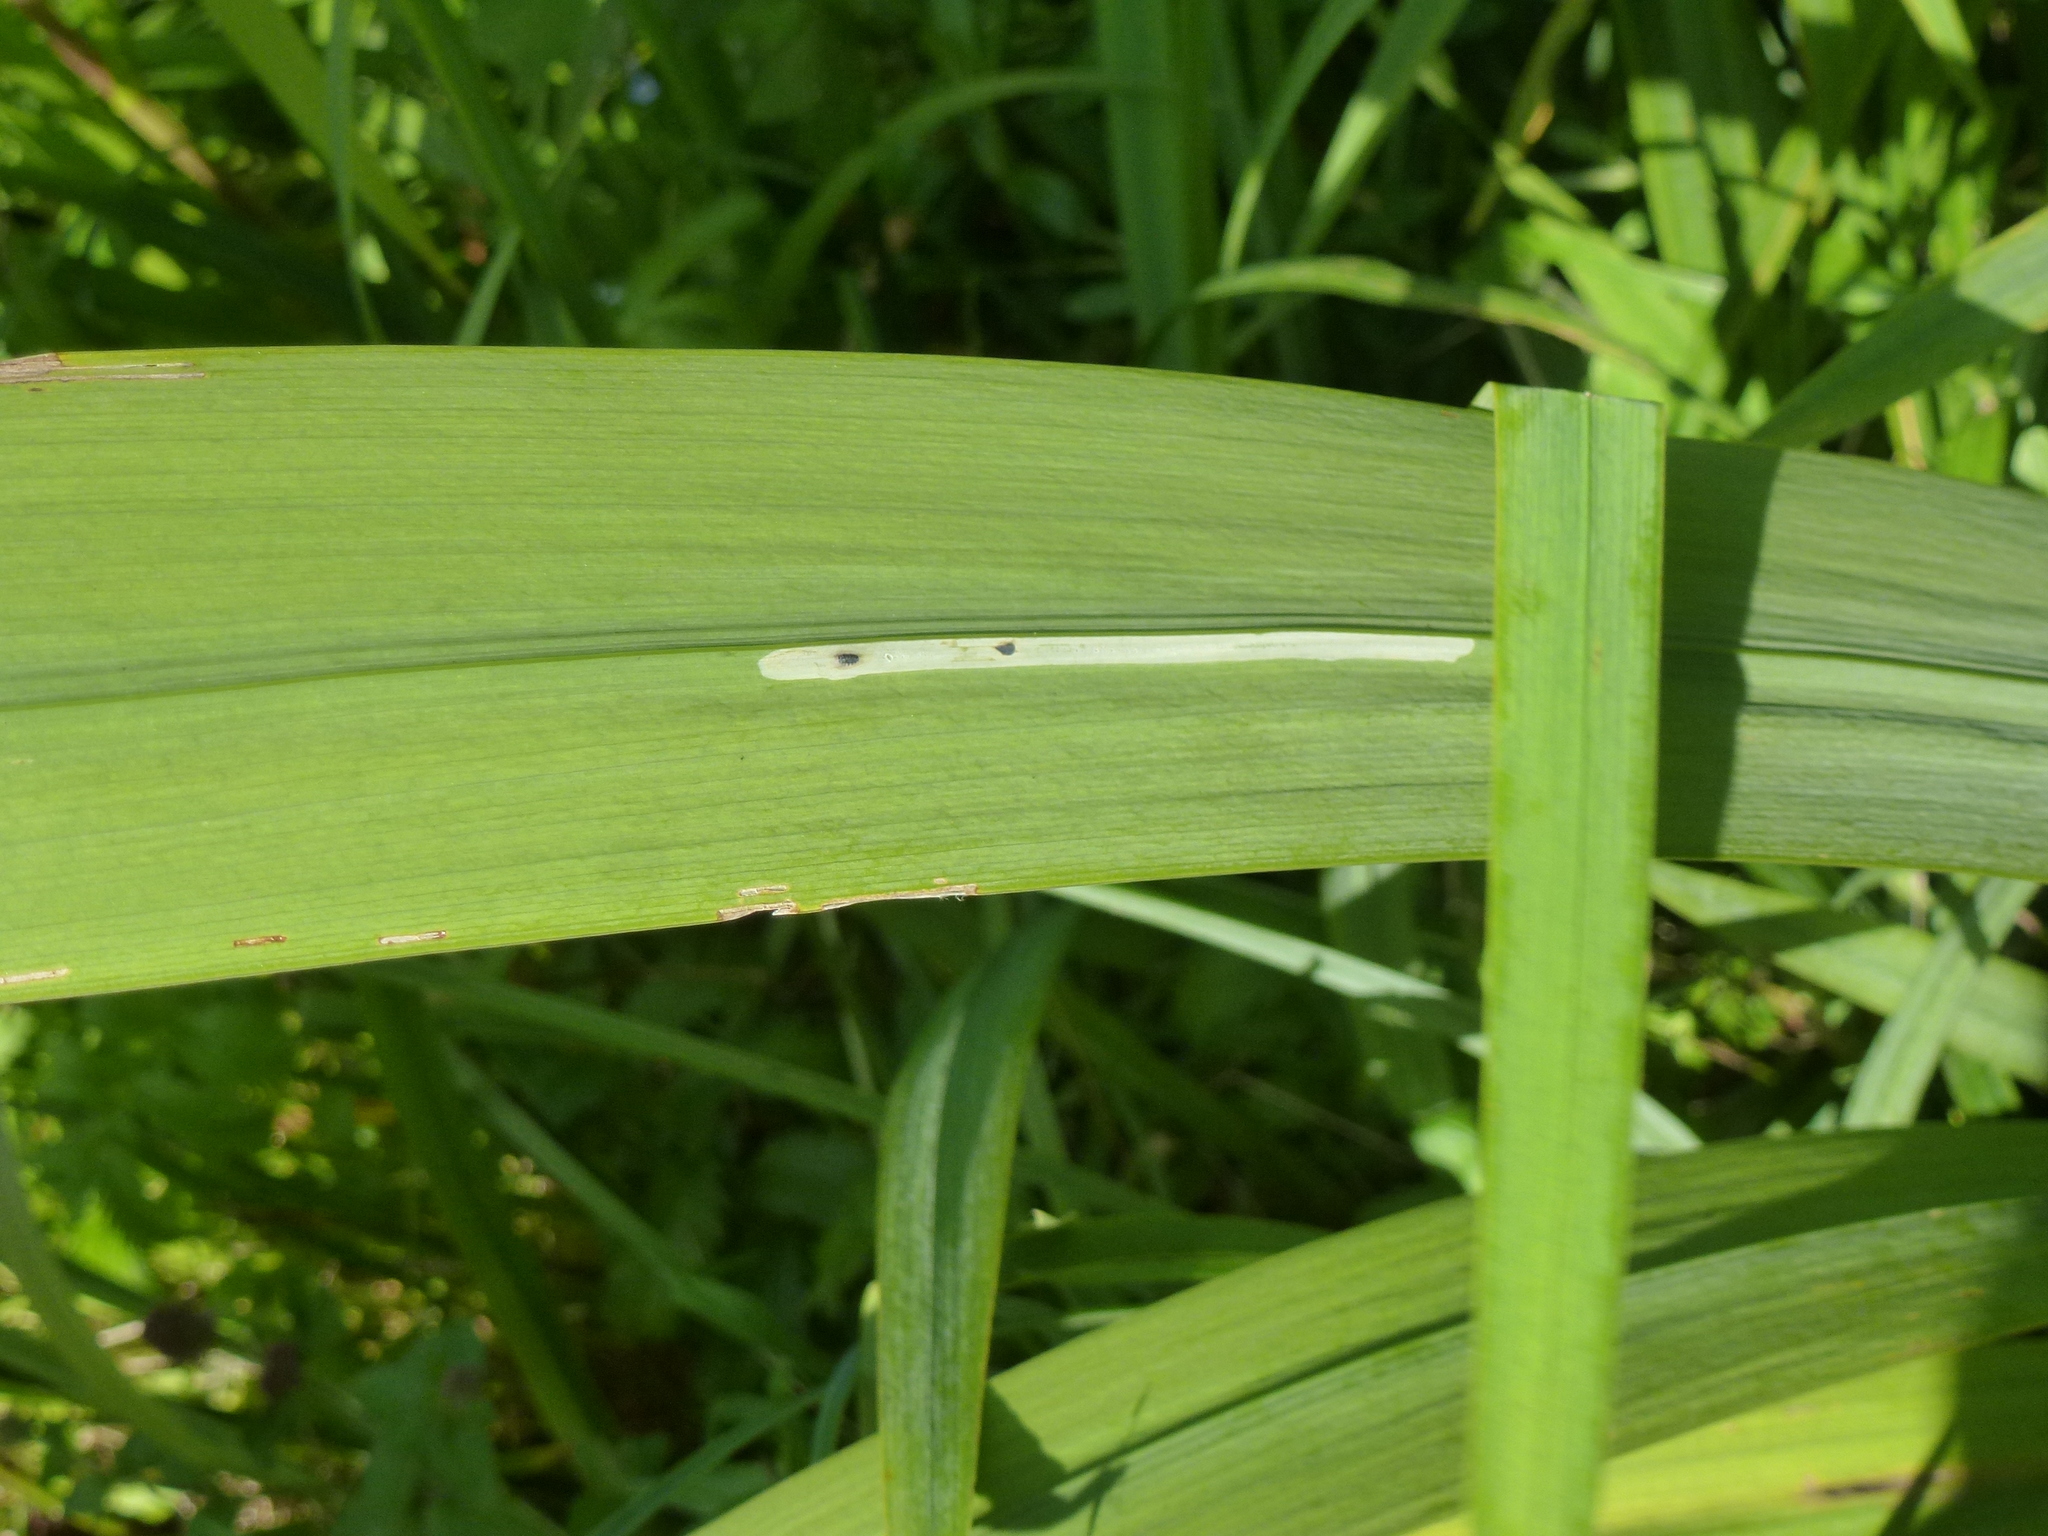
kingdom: Animalia
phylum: Arthropoda
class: Insecta
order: Diptera
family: Agromyzidae
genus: Cerodontha
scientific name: Cerodontha ircos
